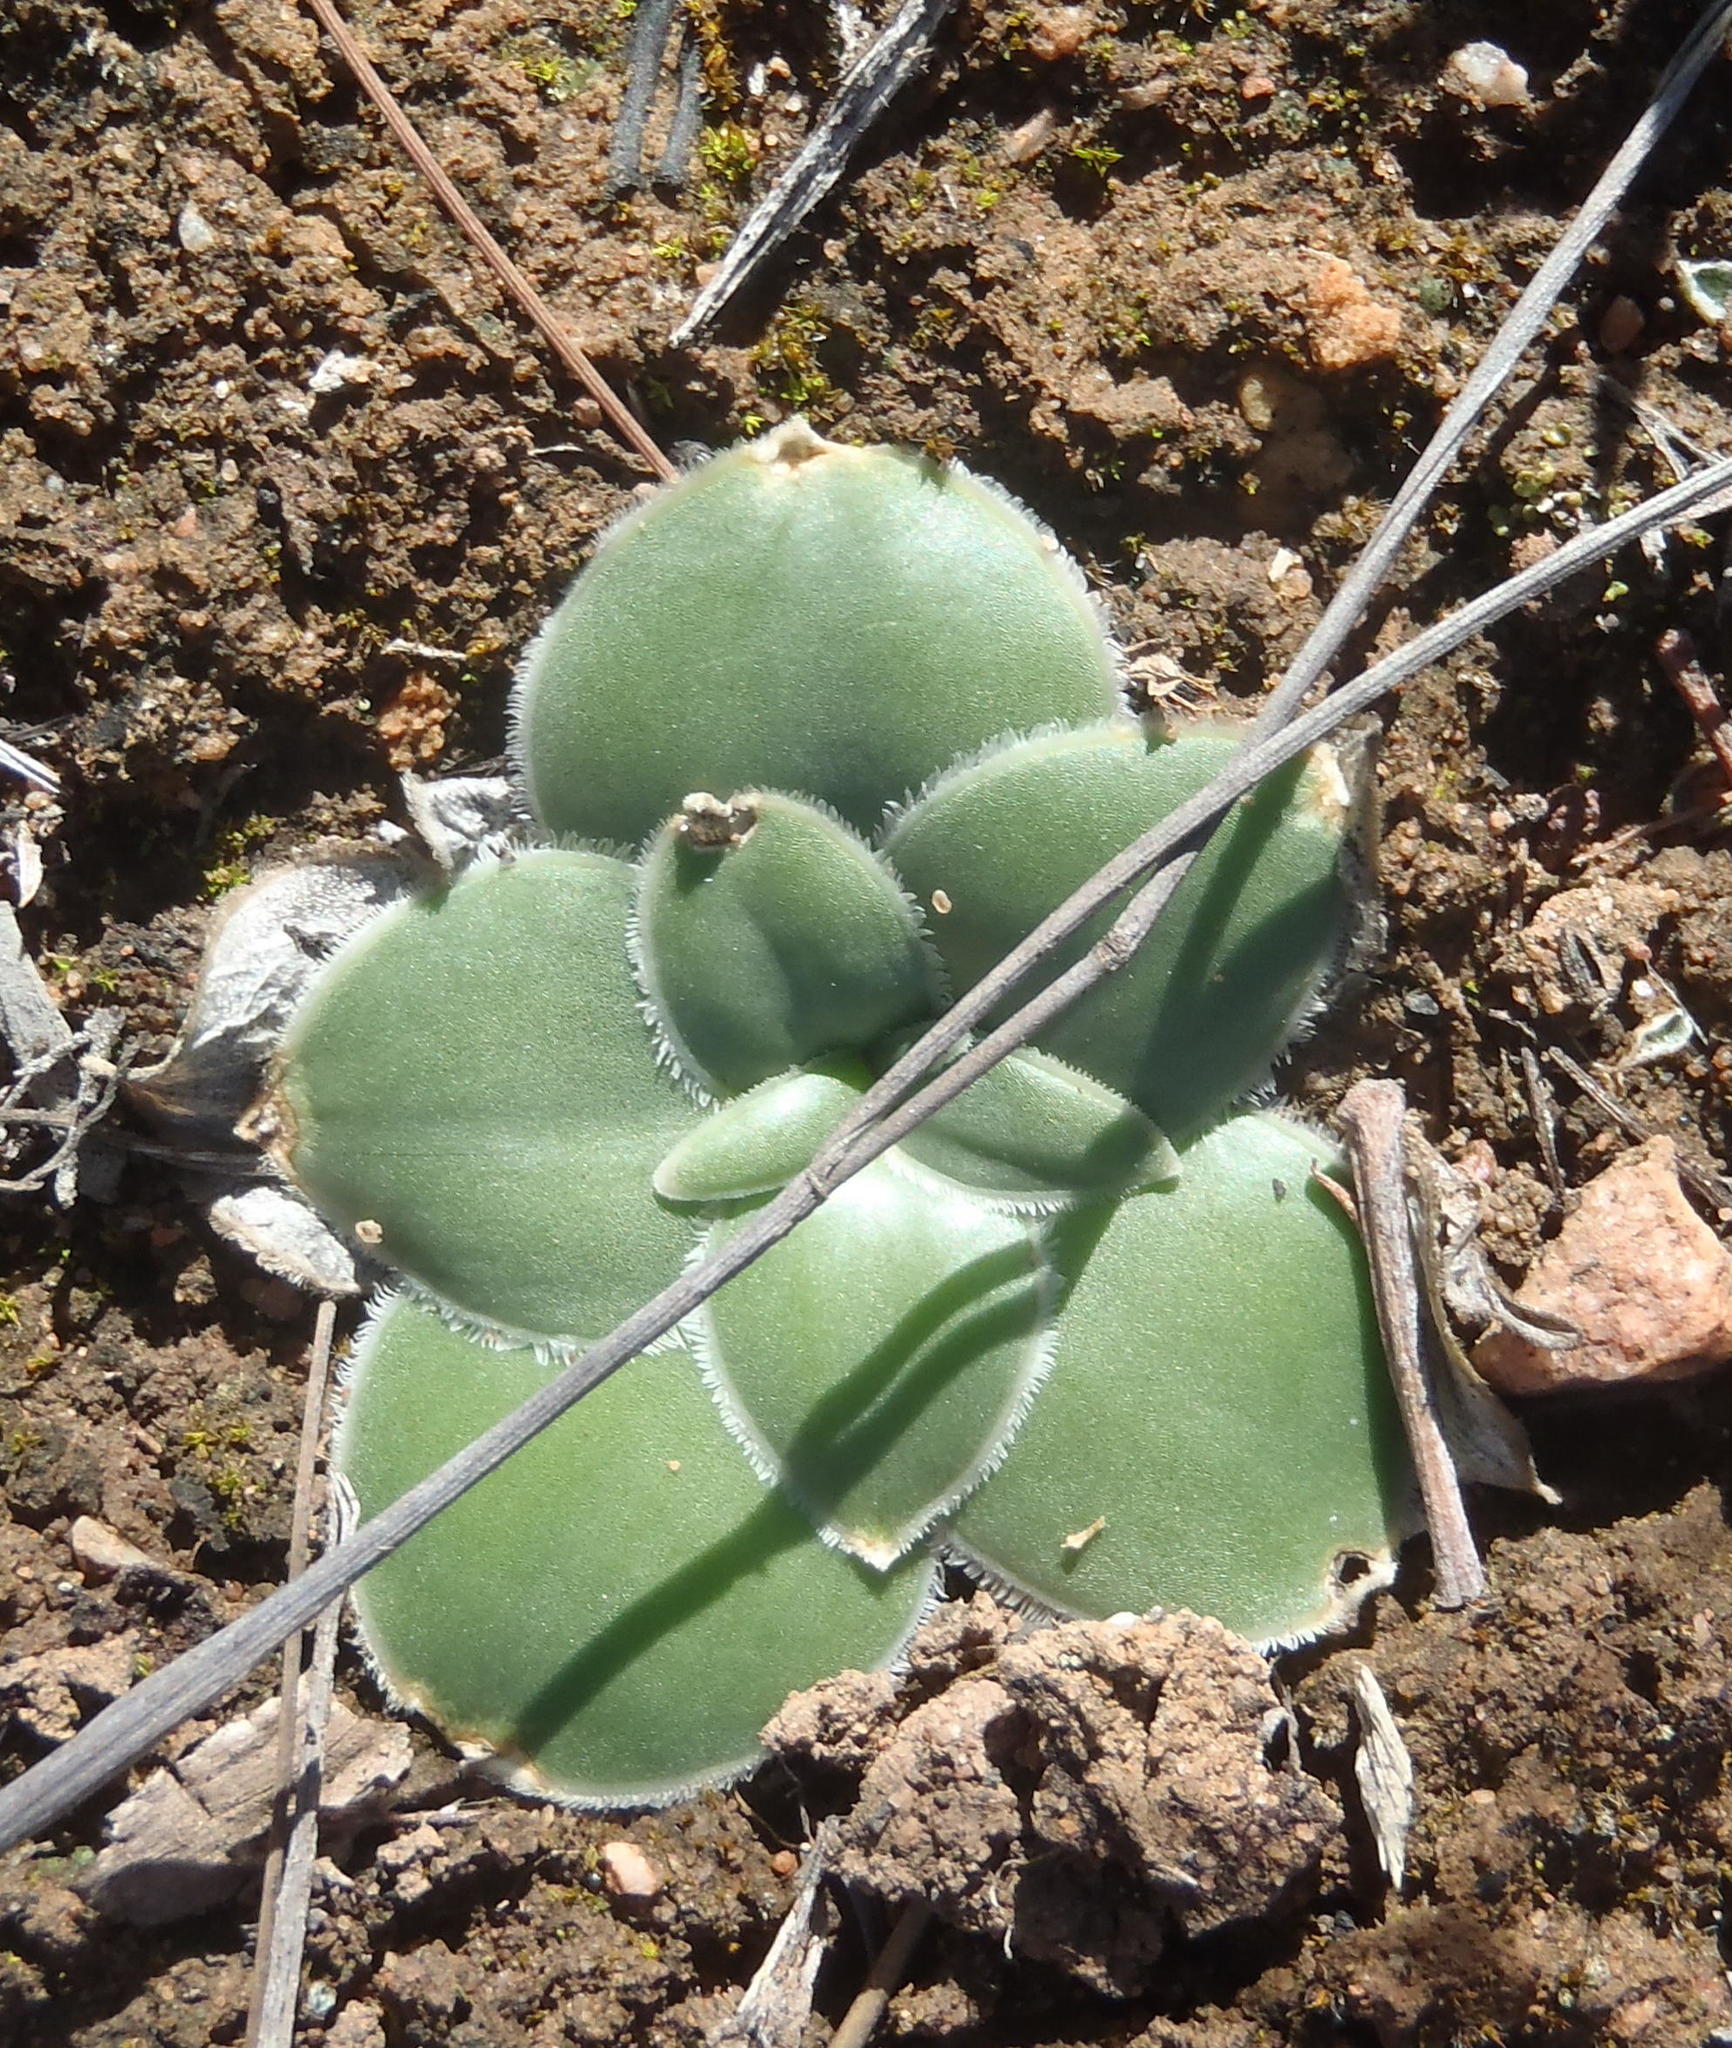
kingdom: Plantae
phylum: Tracheophyta
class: Liliopsida
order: Asparagales
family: Asparagaceae
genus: Drimia
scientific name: Drimia ciliata
